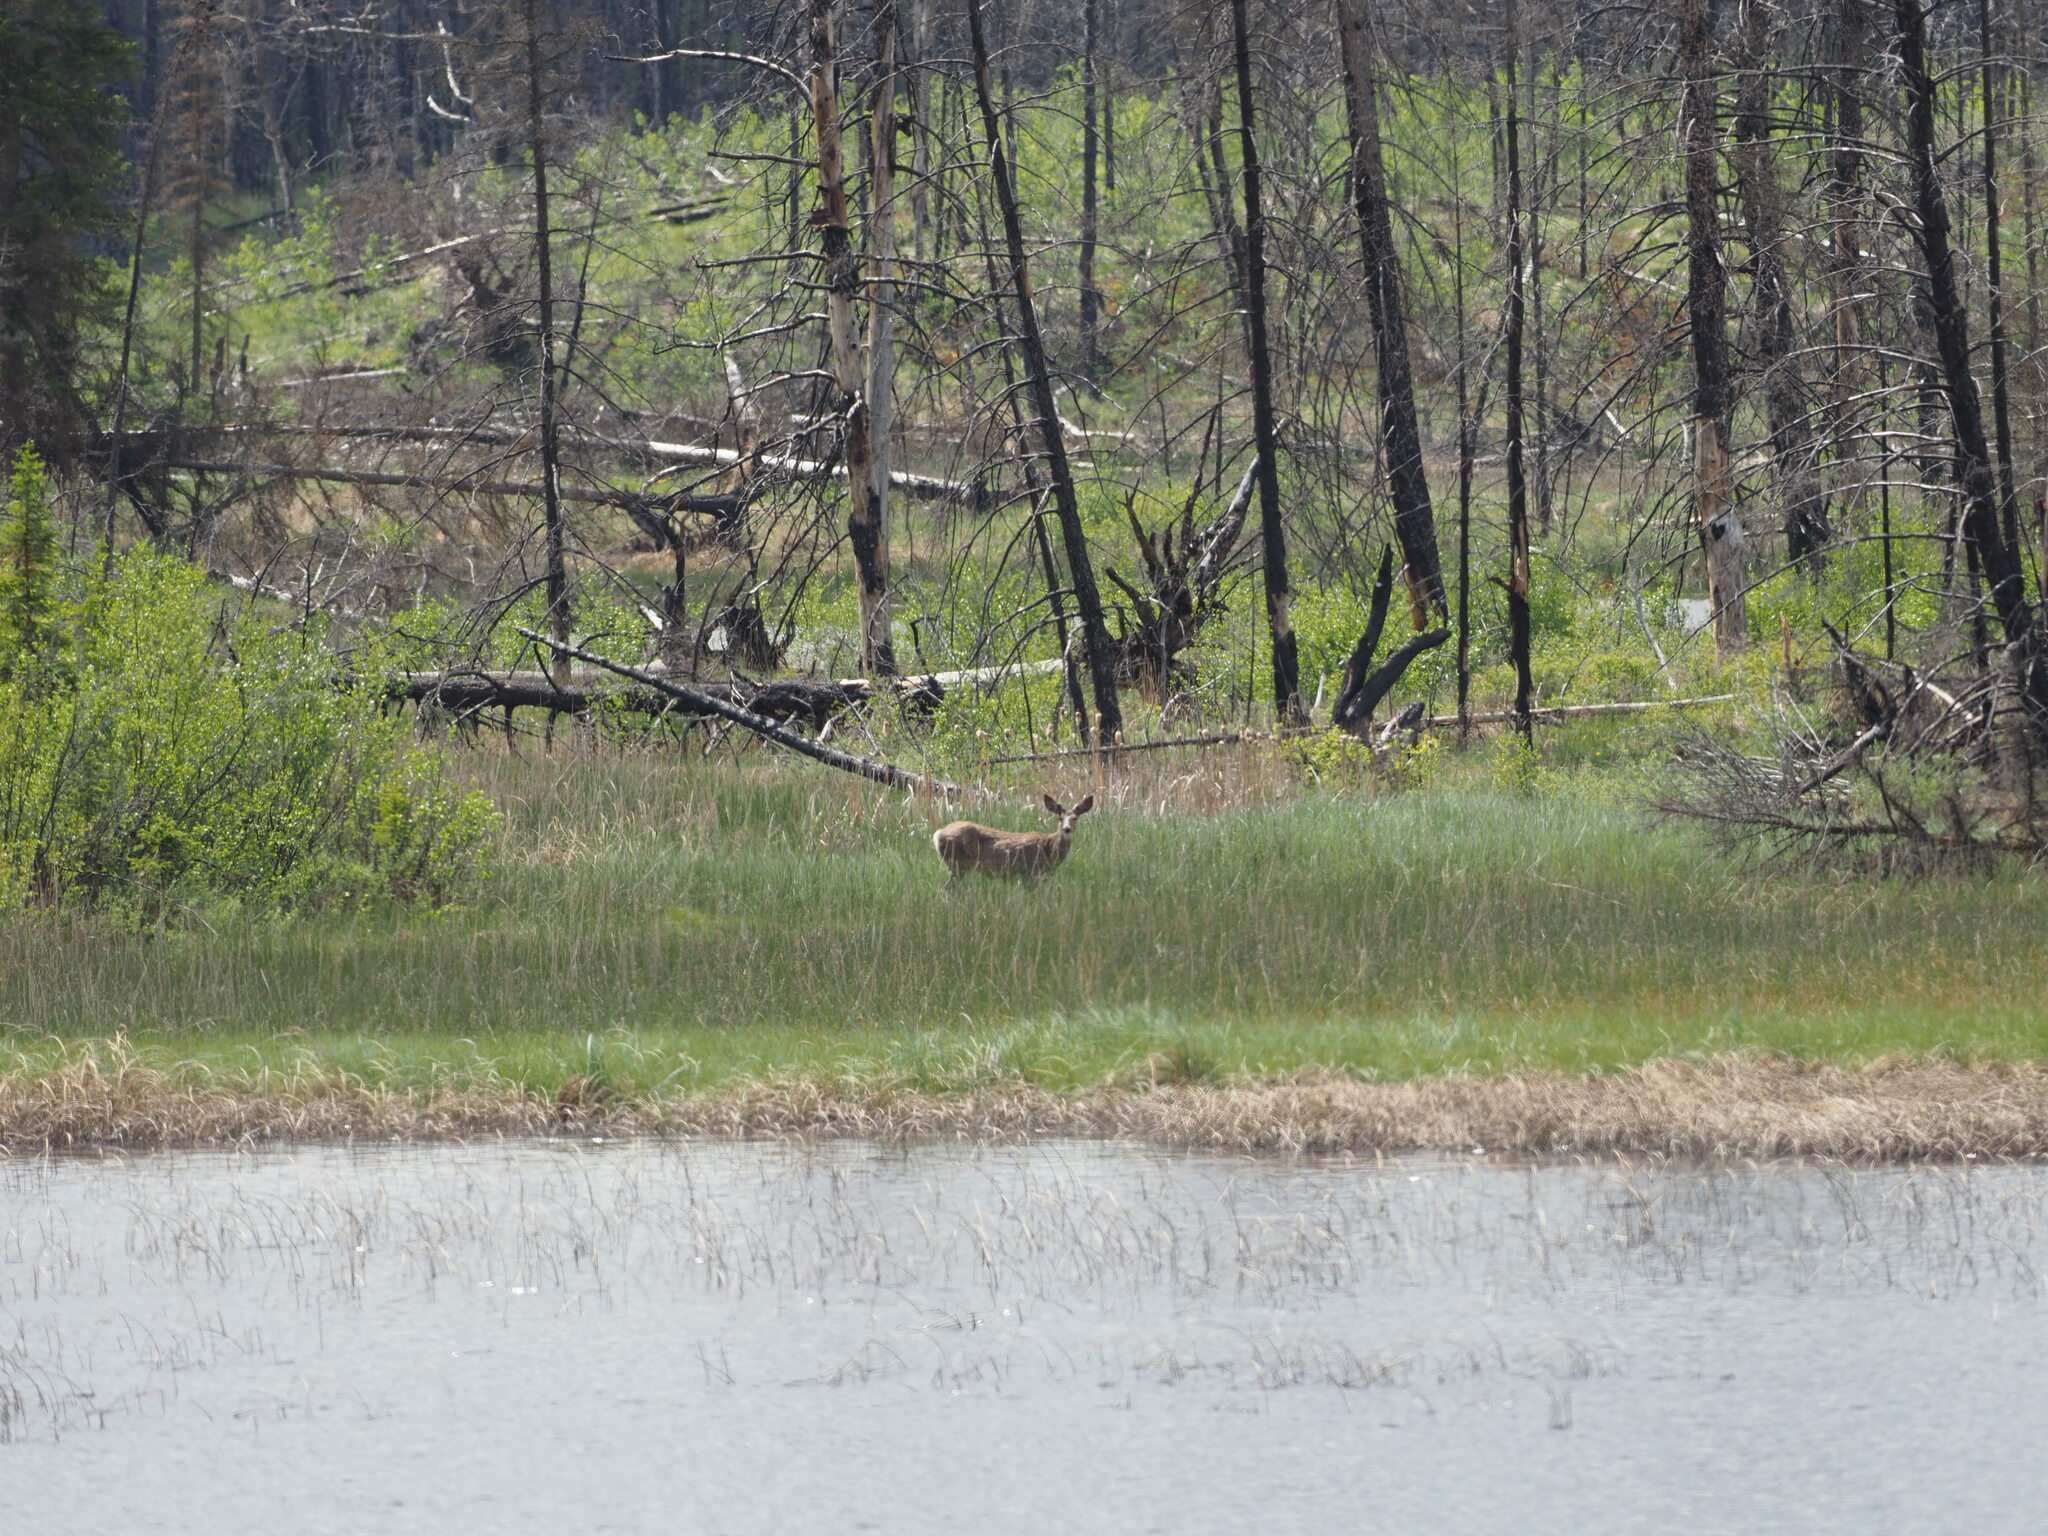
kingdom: Animalia
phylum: Chordata
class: Mammalia
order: Artiodactyla
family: Cervidae
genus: Odocoileus
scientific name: Odocoileus hemionus
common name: Mule deer
